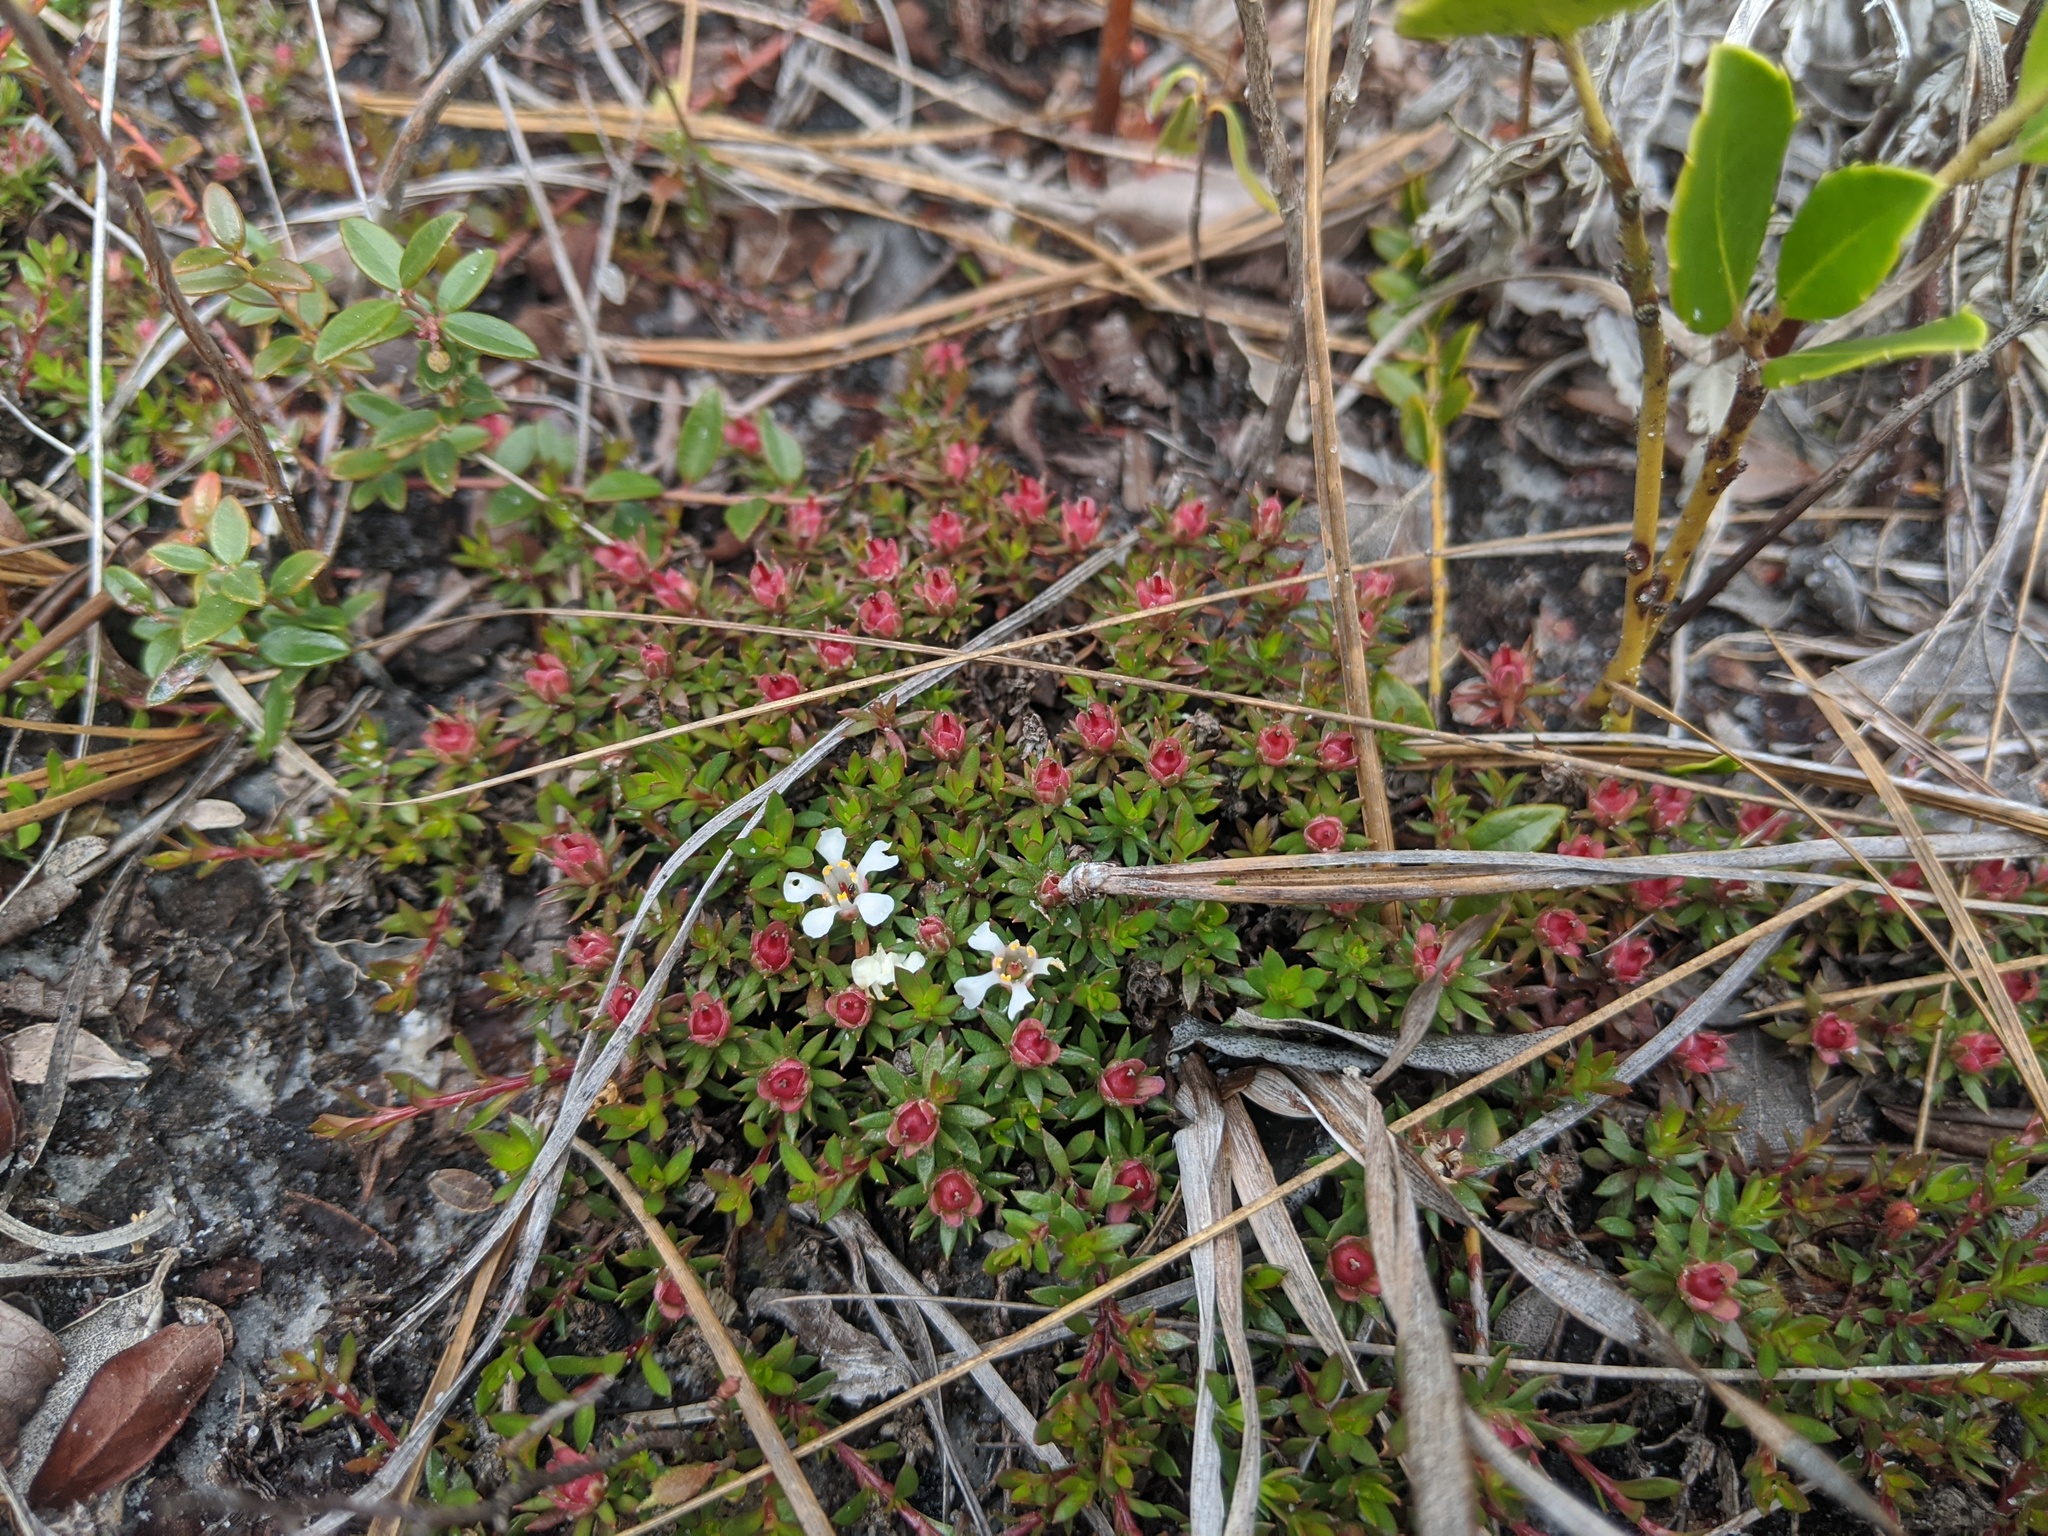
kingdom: Plantae
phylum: Tracheophyta
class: Magnoliopsida
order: Ericales
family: Diapensiaceae
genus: Pyxidanthera
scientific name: Pyxidanthera barbulata
